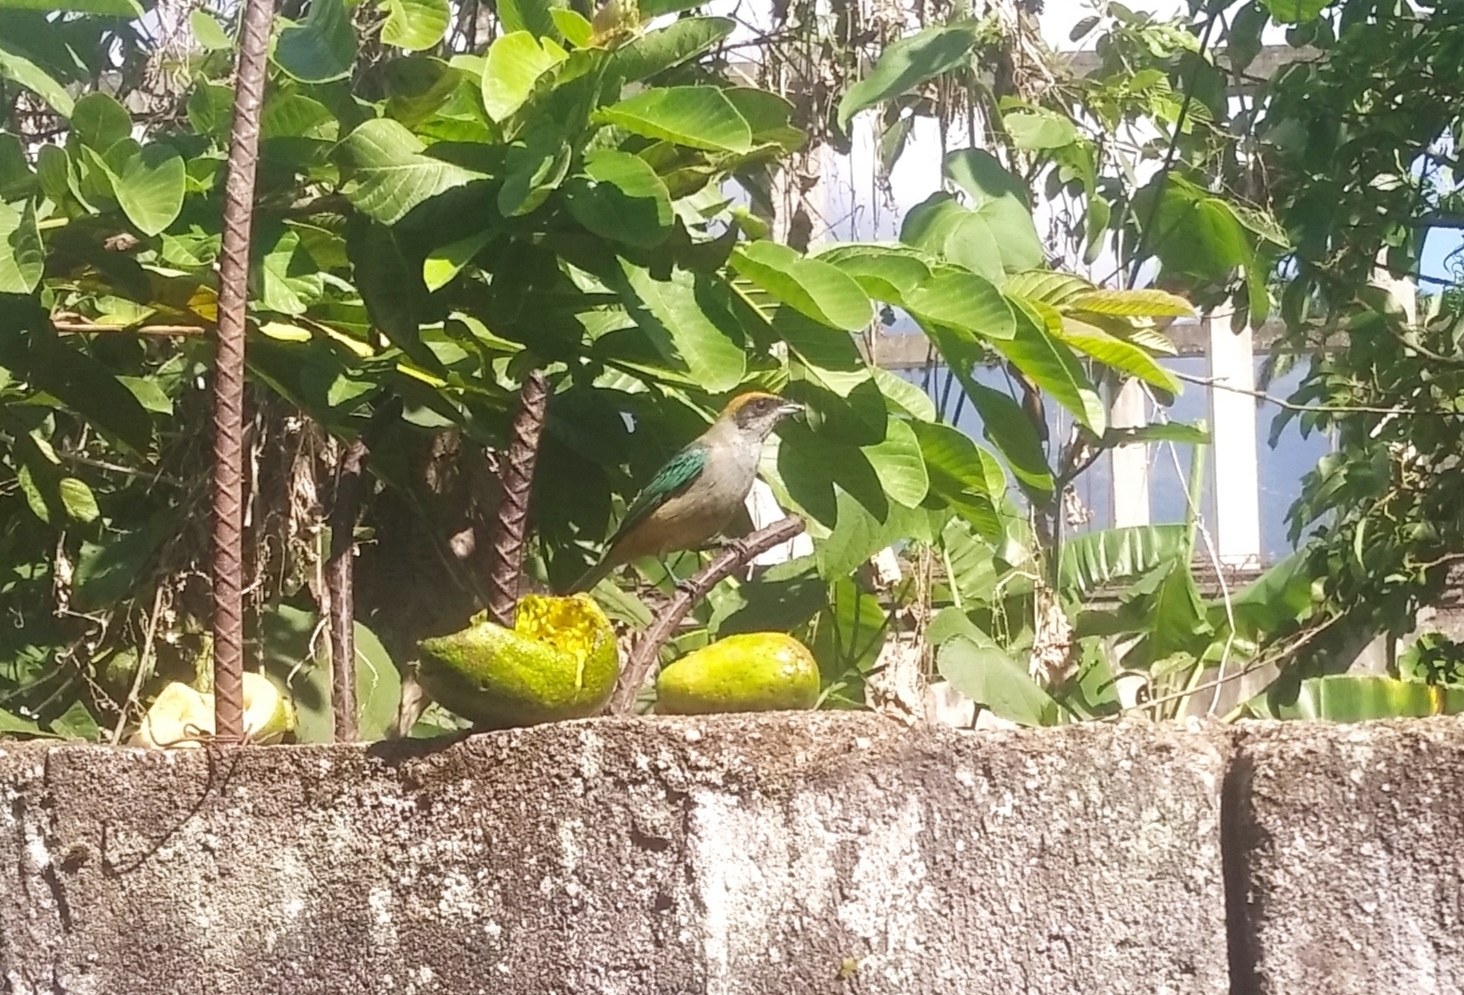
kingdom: Animalia
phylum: Chordata
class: Aves
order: Passeriformes
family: Thraupidae
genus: Stilpnia
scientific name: Stilpnia cayana
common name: Burnished-buff tanager
